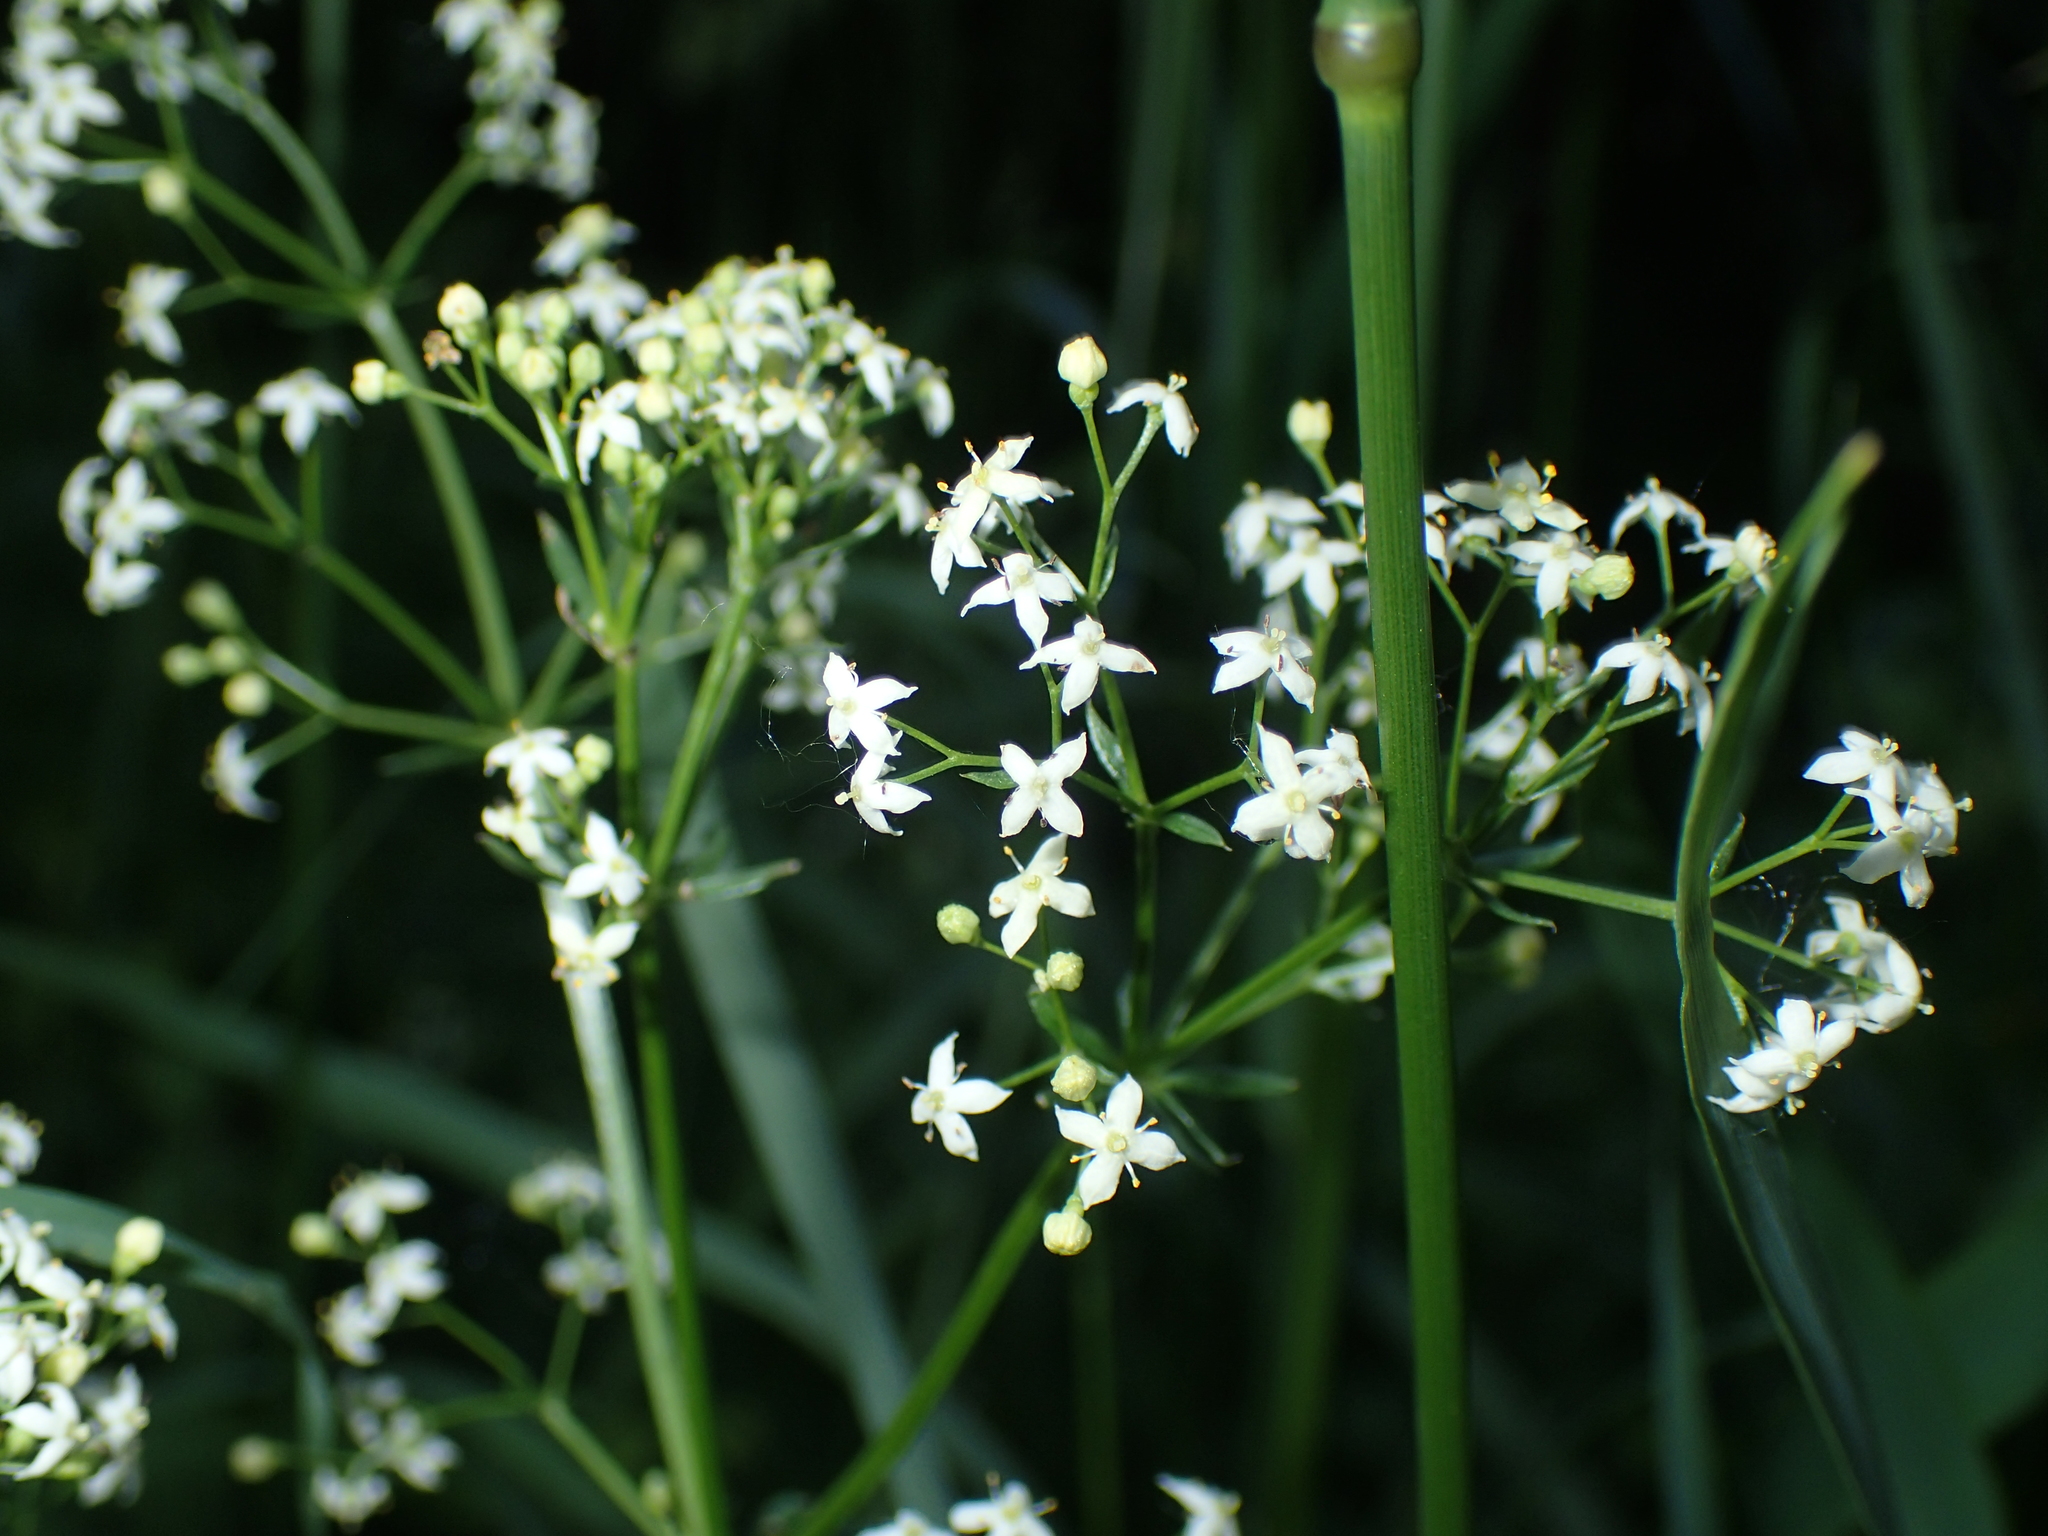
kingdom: Plantae
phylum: Tracheophyta
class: Magnoliopsida
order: Gentianales
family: Rubiaceae
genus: Galium
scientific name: Galium mollugo
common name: Hedge bedstraw
